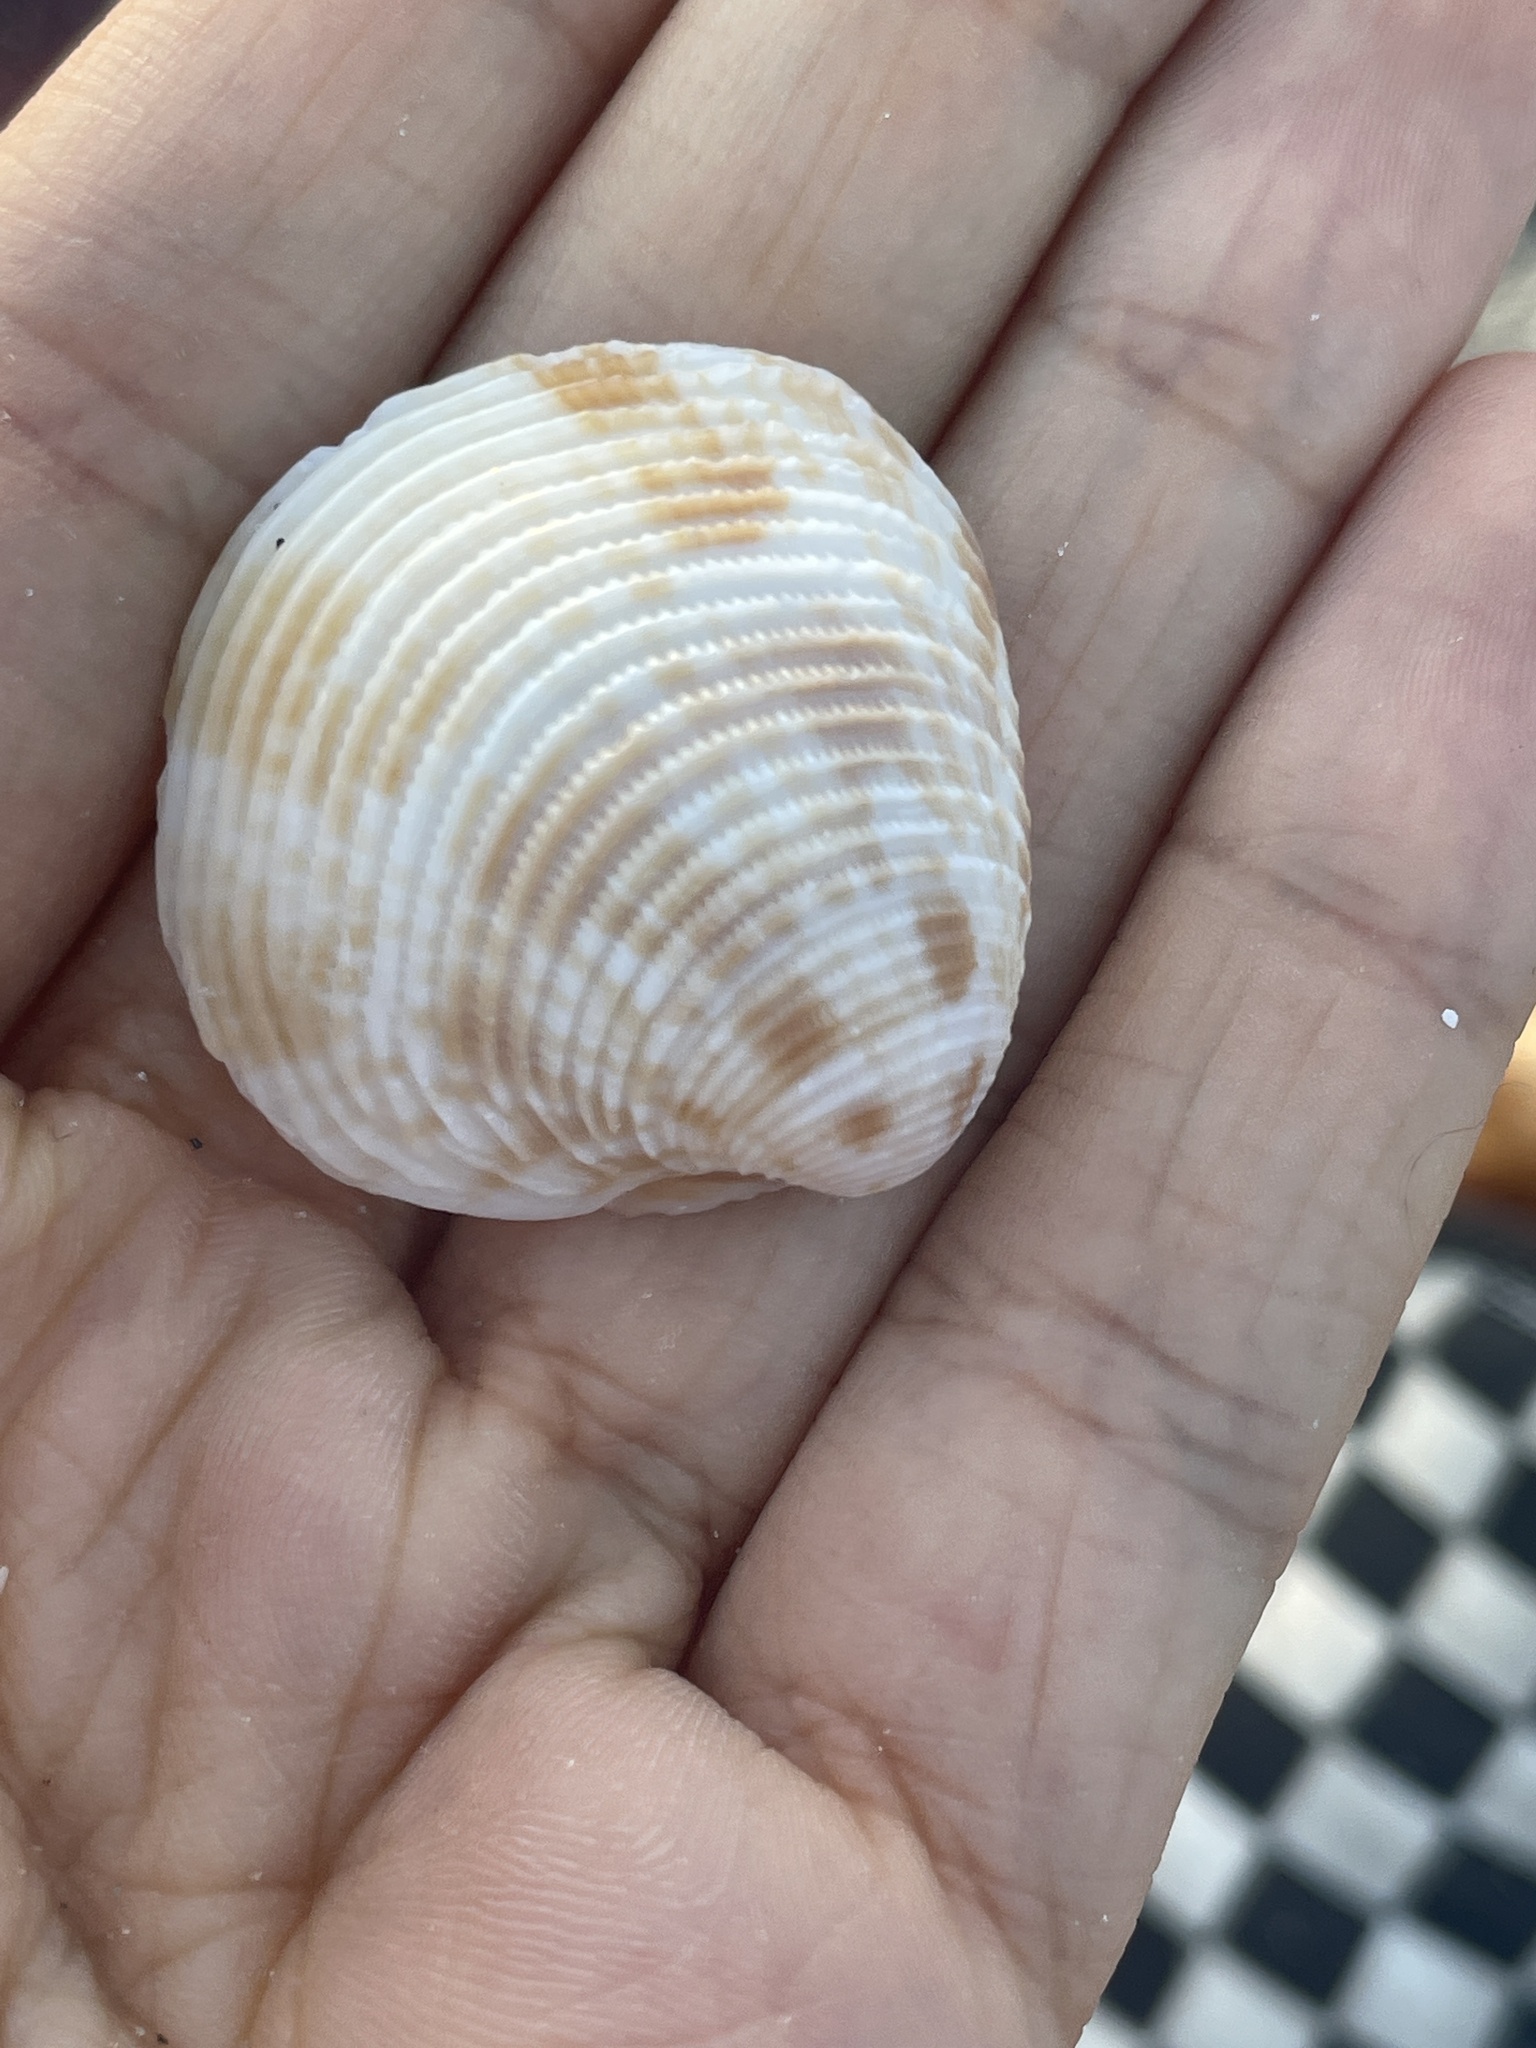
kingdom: Animalia
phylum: Mollusca
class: Bivalvia
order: Venerida
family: Veneridae
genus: Chionopsis
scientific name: Chionopsis intapurpurea
